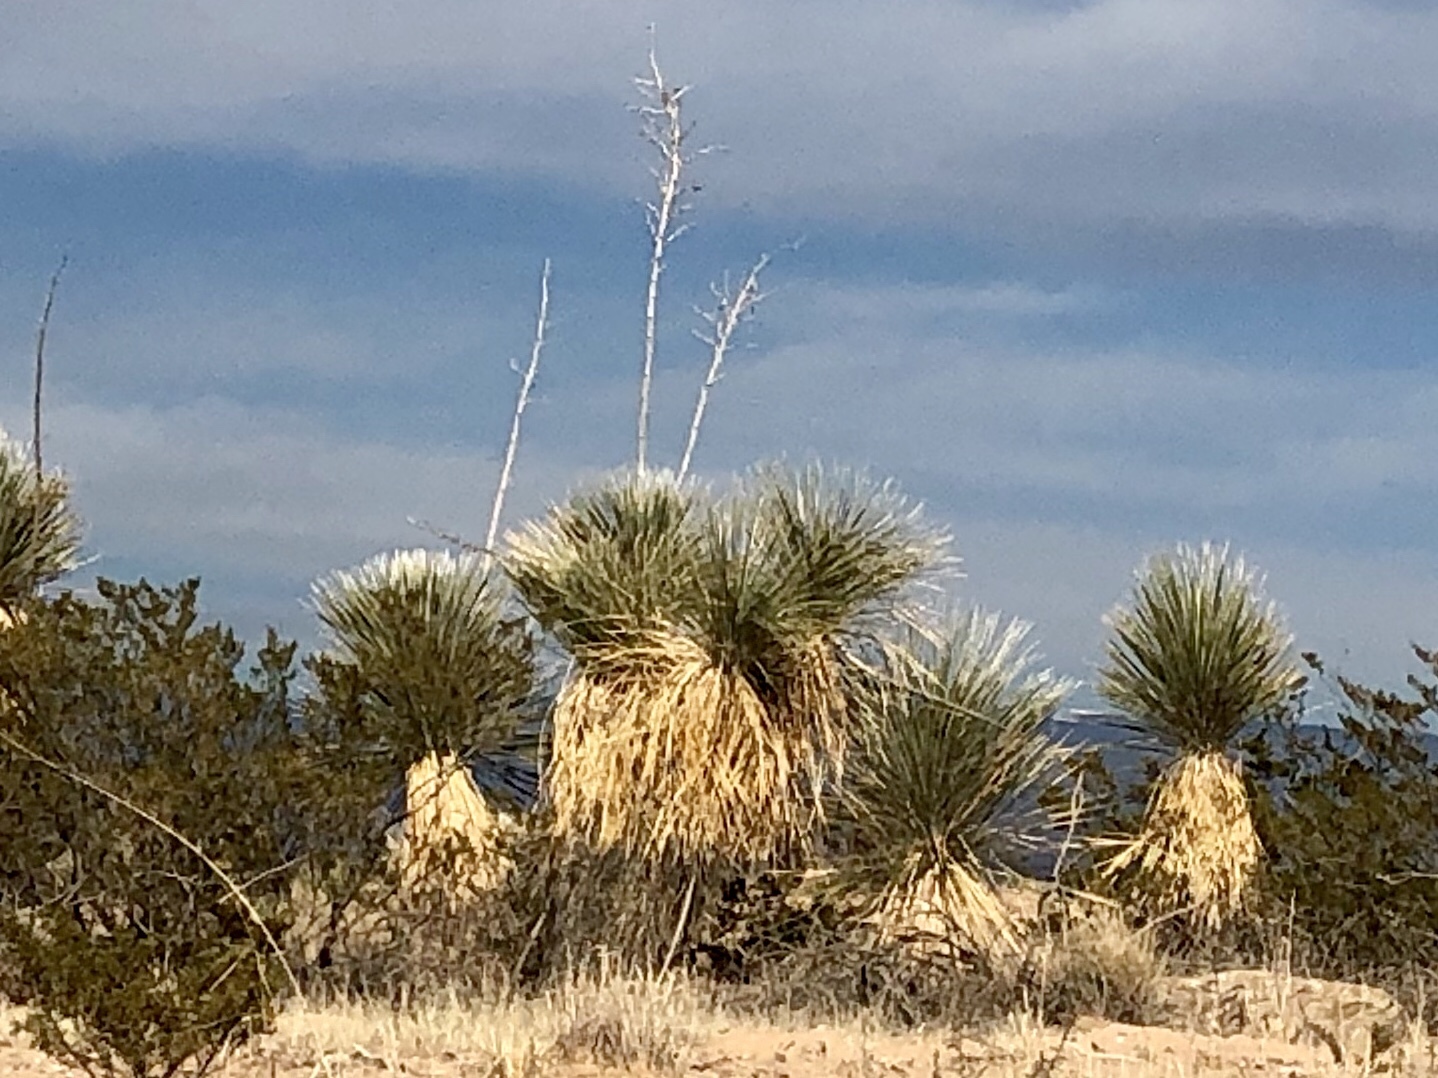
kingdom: Plantae
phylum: Tracheophyta
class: Liliopsida
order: Asparagales
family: Asparagaceae
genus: Yucca
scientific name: Yucca elata
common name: Palmella
